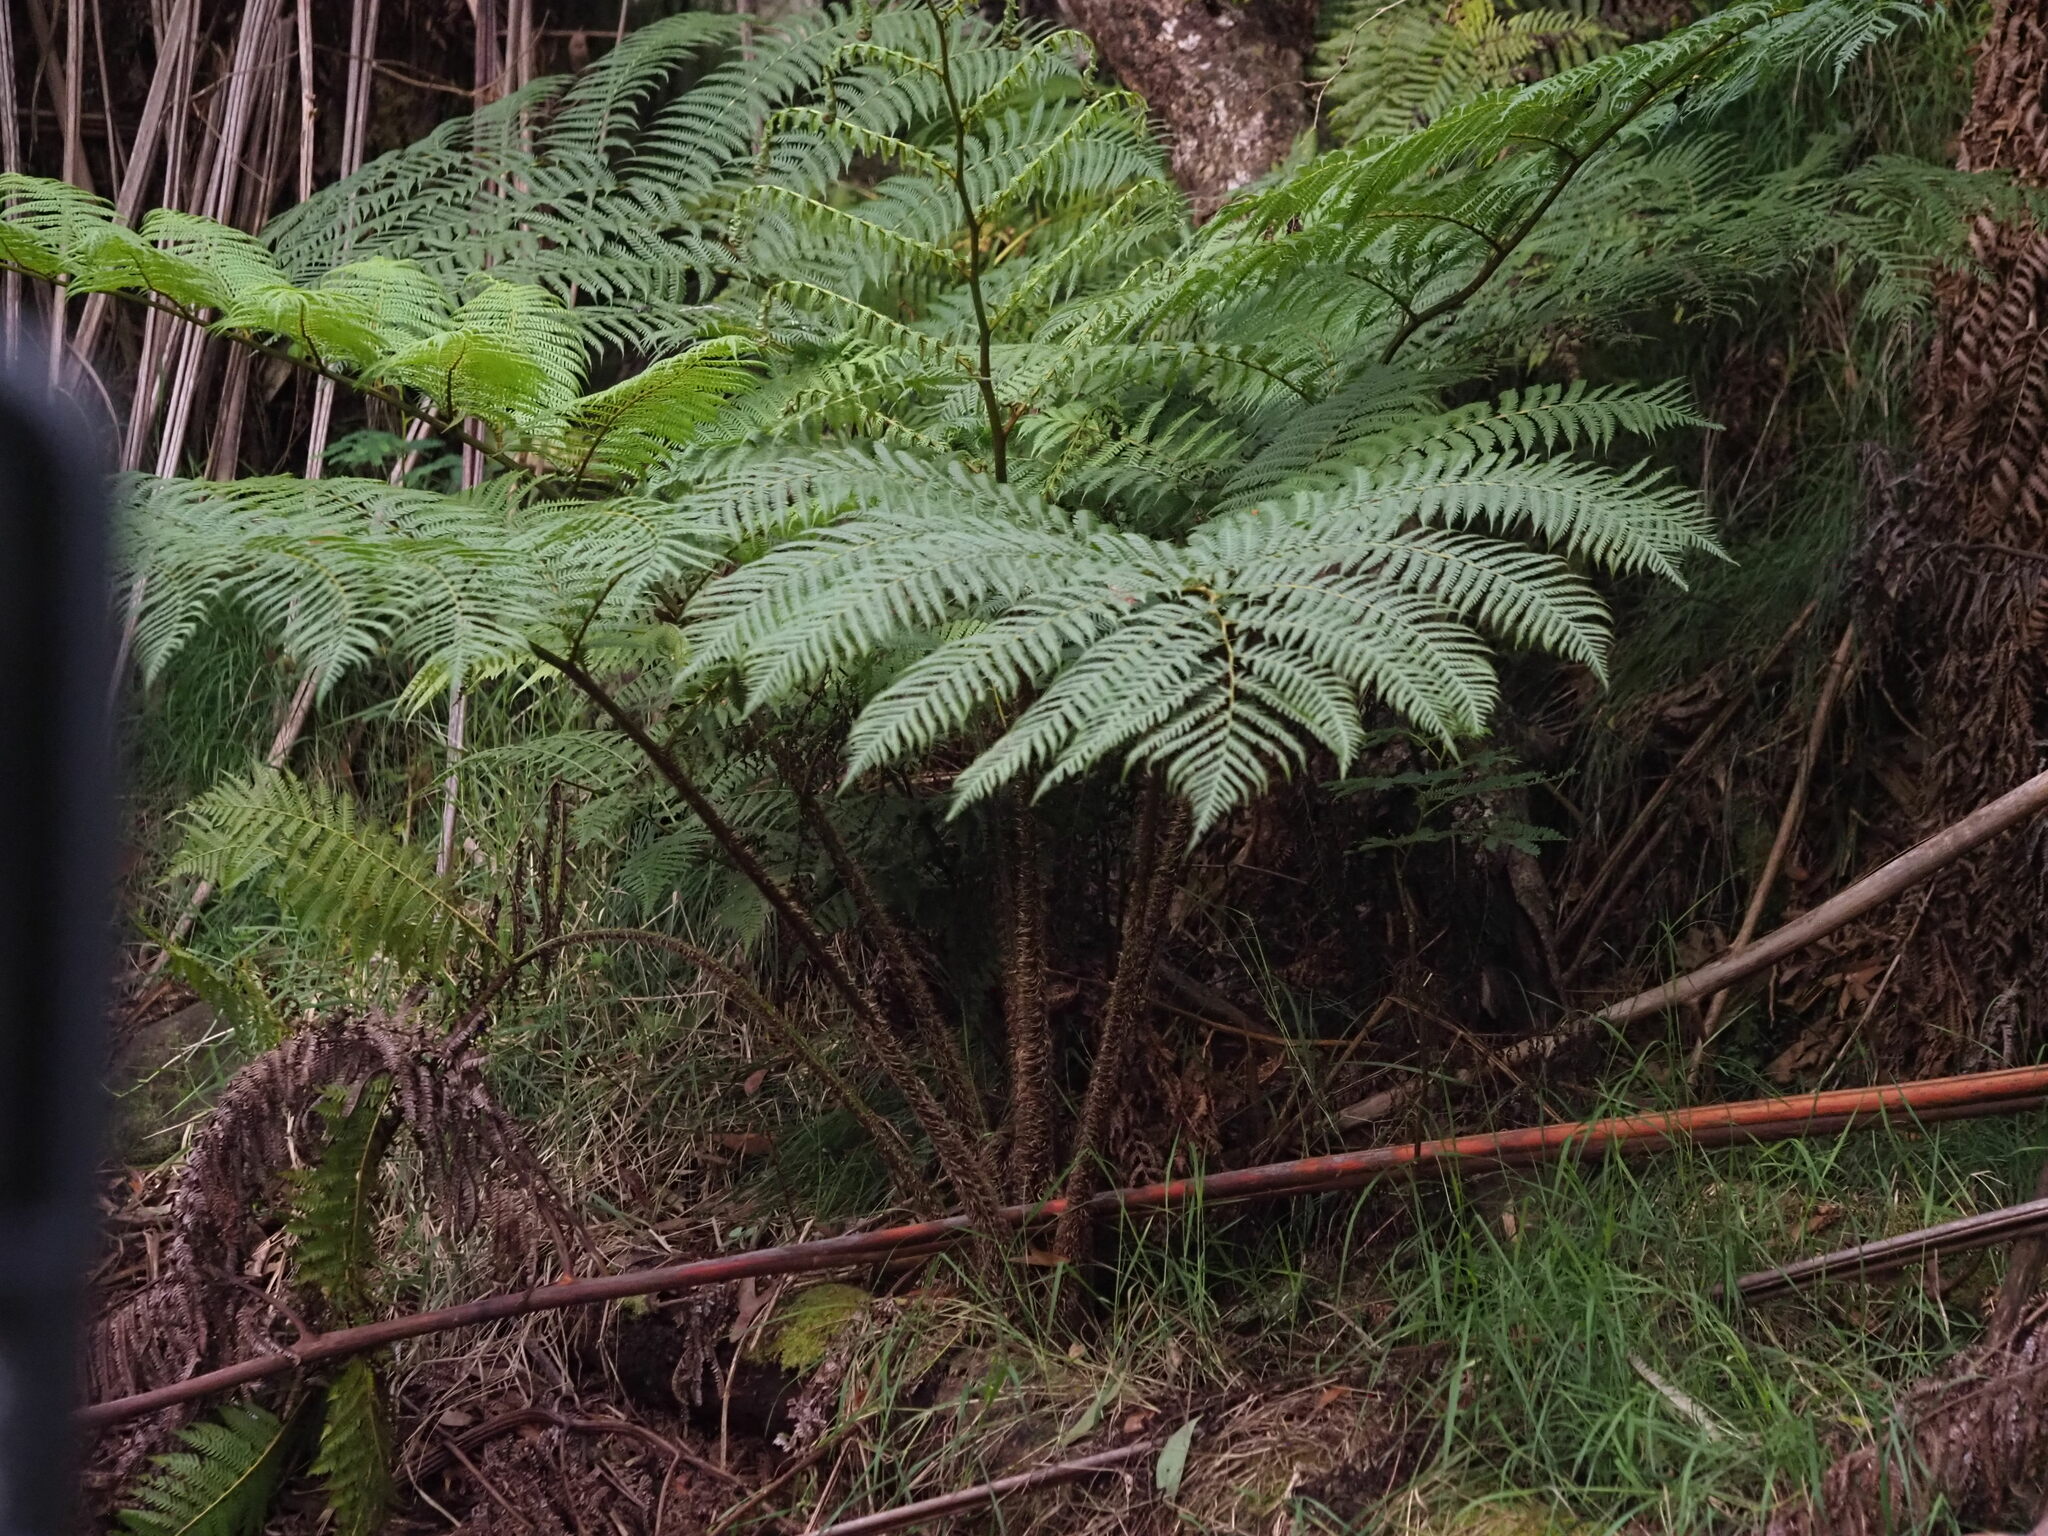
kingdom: Plantae
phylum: Tracheophyta
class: Polypodiopsida
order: Cyatheales
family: Cyatheaceae
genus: Sphaeropteris
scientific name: Sphaeropteris cooperi
